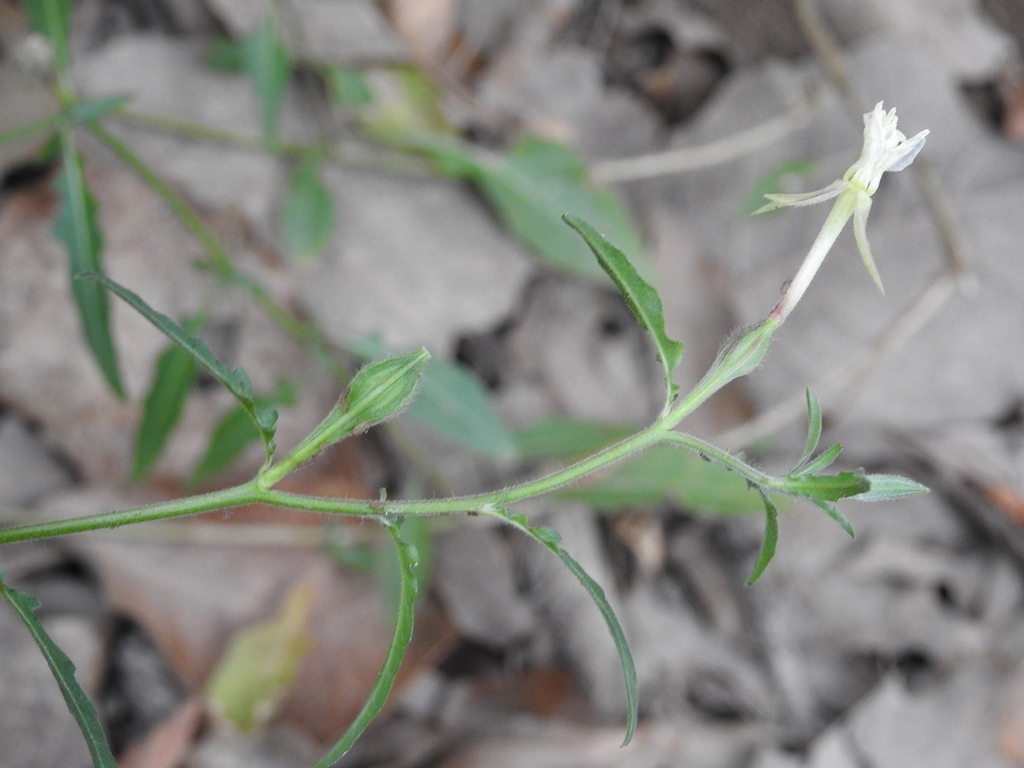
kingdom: Plantae
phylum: Tracheophyta
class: Magnoliopsida
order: Myrtales
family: Onagraceae
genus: Oenothera
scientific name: Oenothera kunthiana
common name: Kunth's evening-primrose
